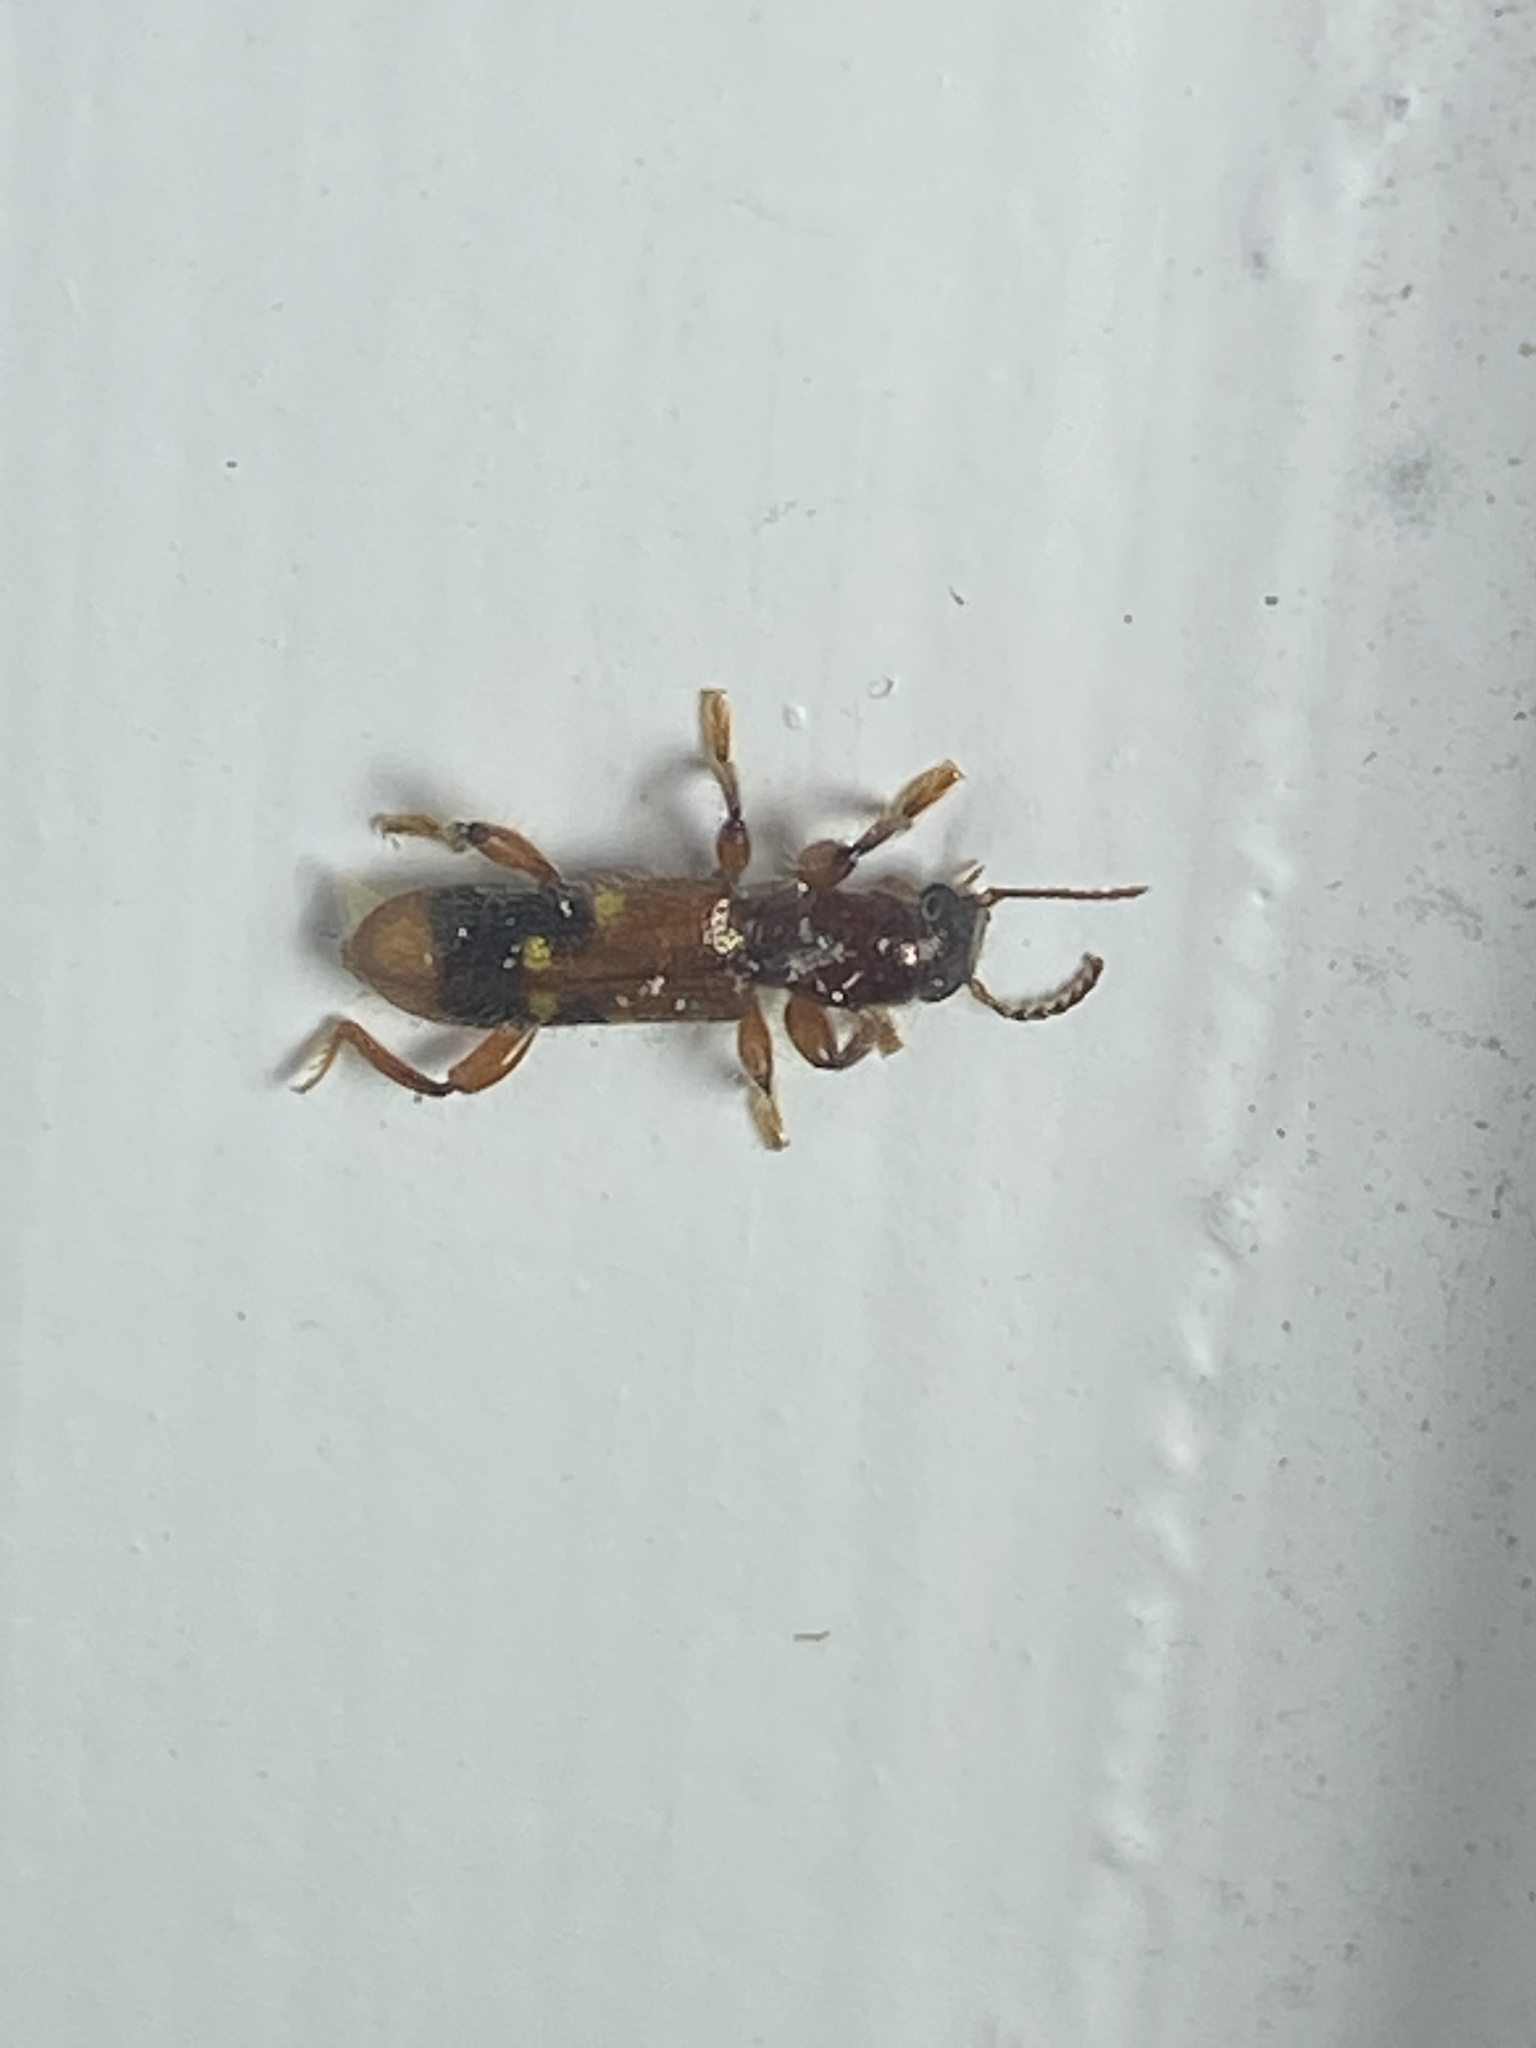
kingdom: Animalia
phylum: Arthropoda
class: Insecta
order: Coleoptera
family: Cleridae
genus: Priocera
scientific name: Priocera castanea
